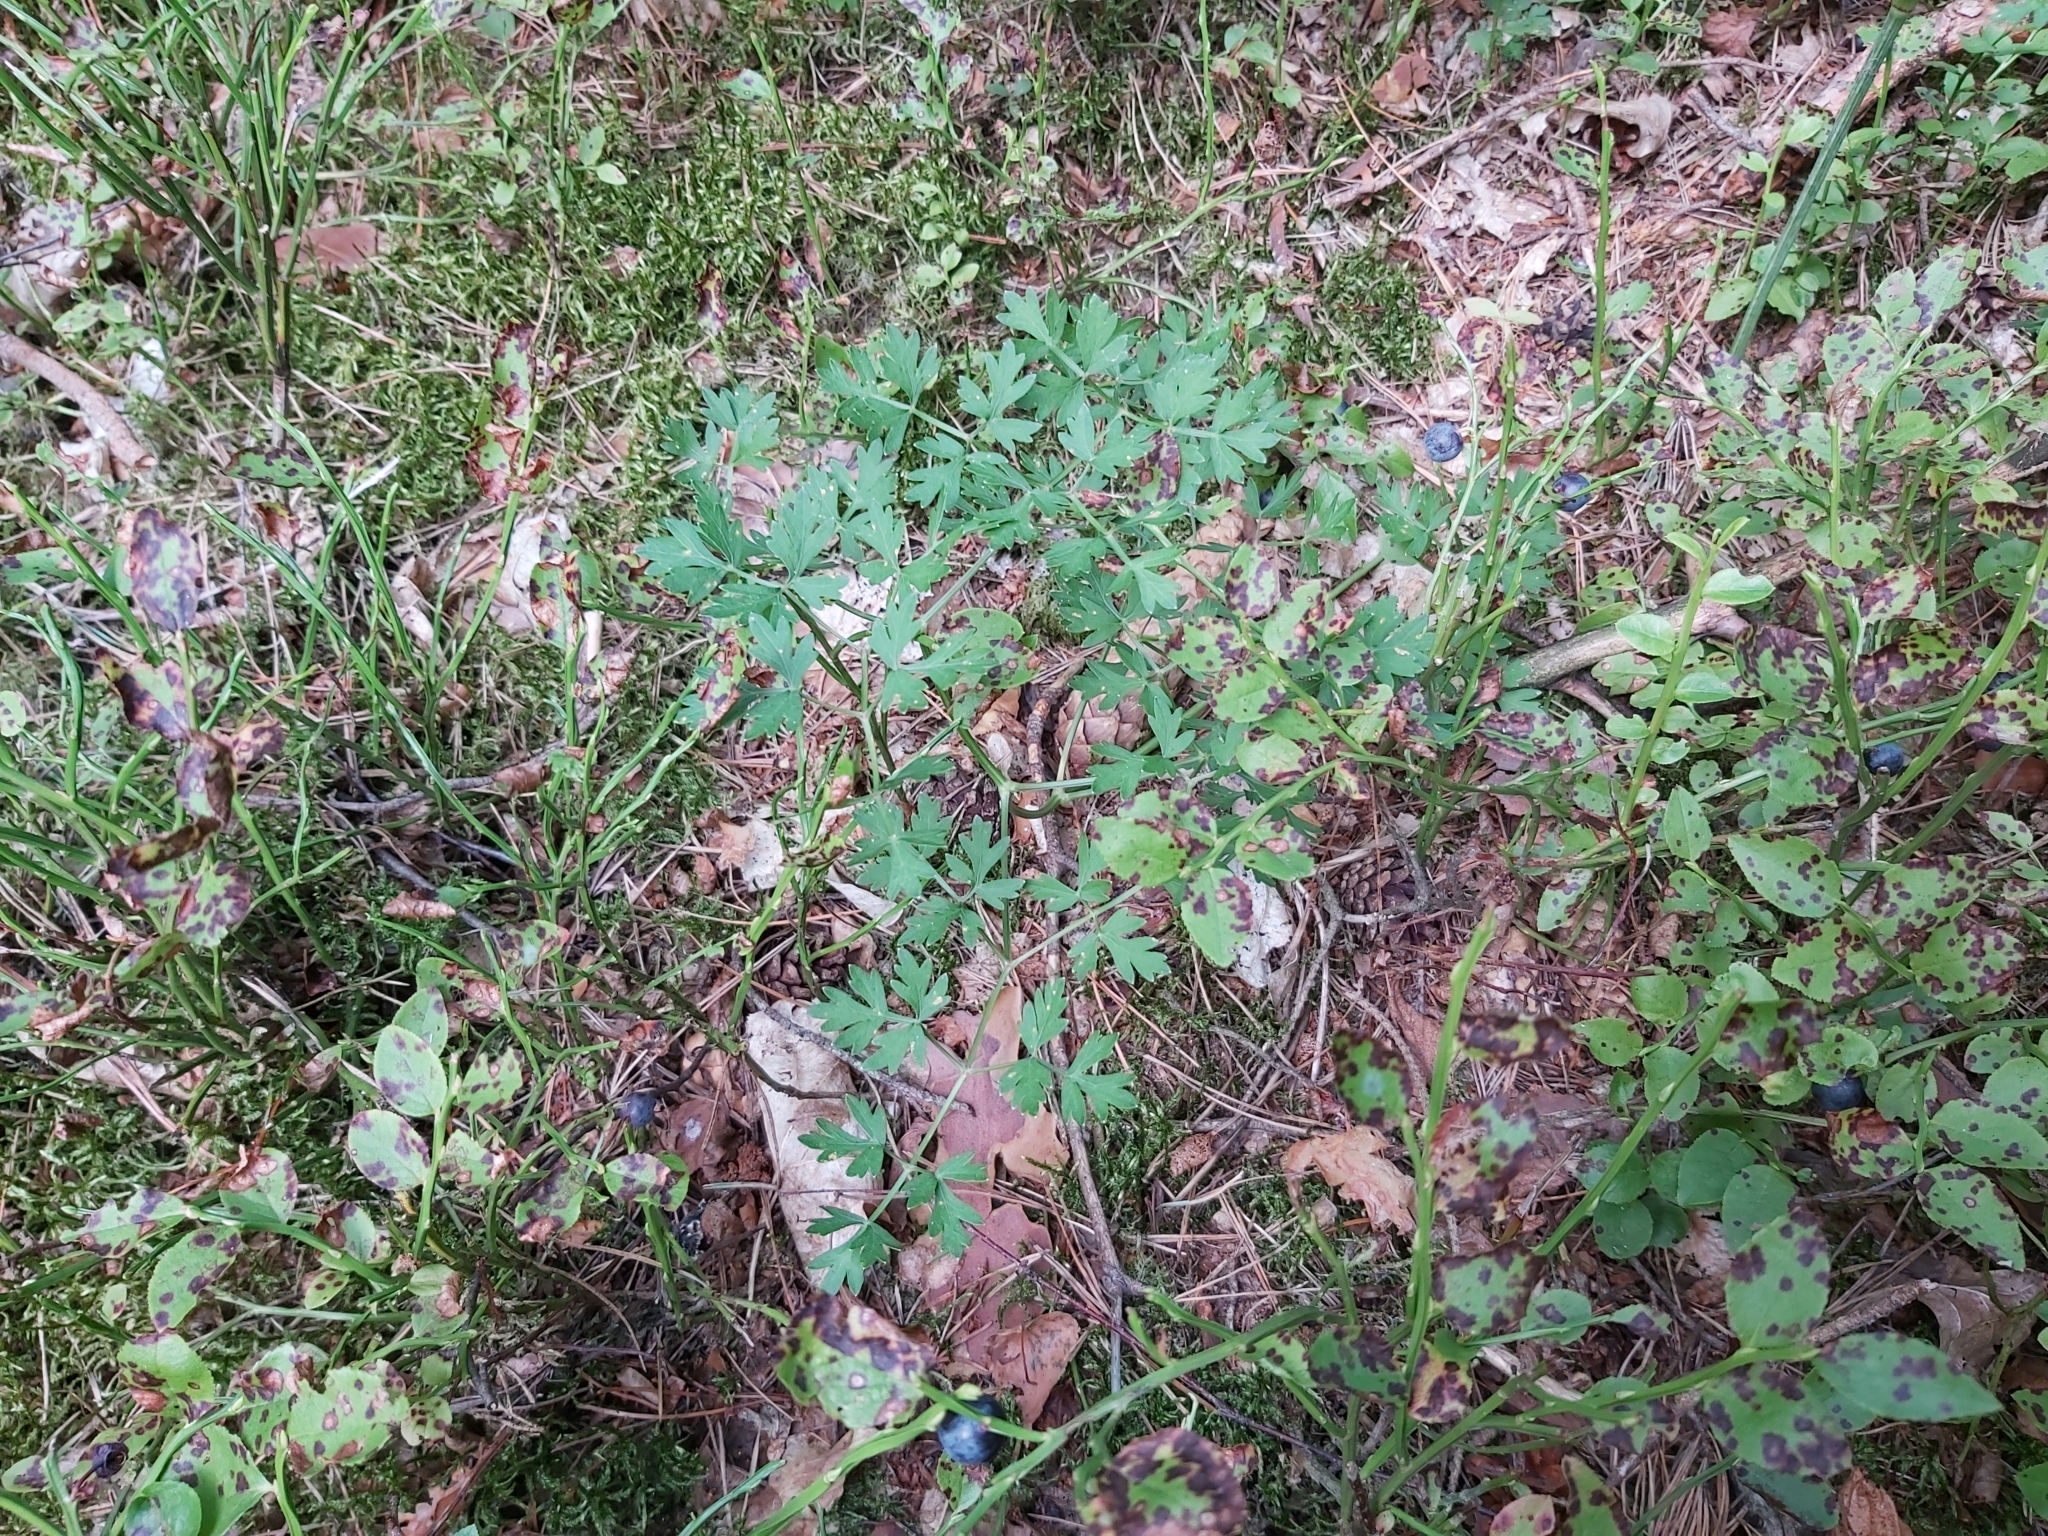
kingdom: Plantae
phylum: Tracheophyta
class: Magnoliopsida
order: Apiales
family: Apiaceae
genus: Oreoselinum
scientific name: Oreoselinum nigrum
